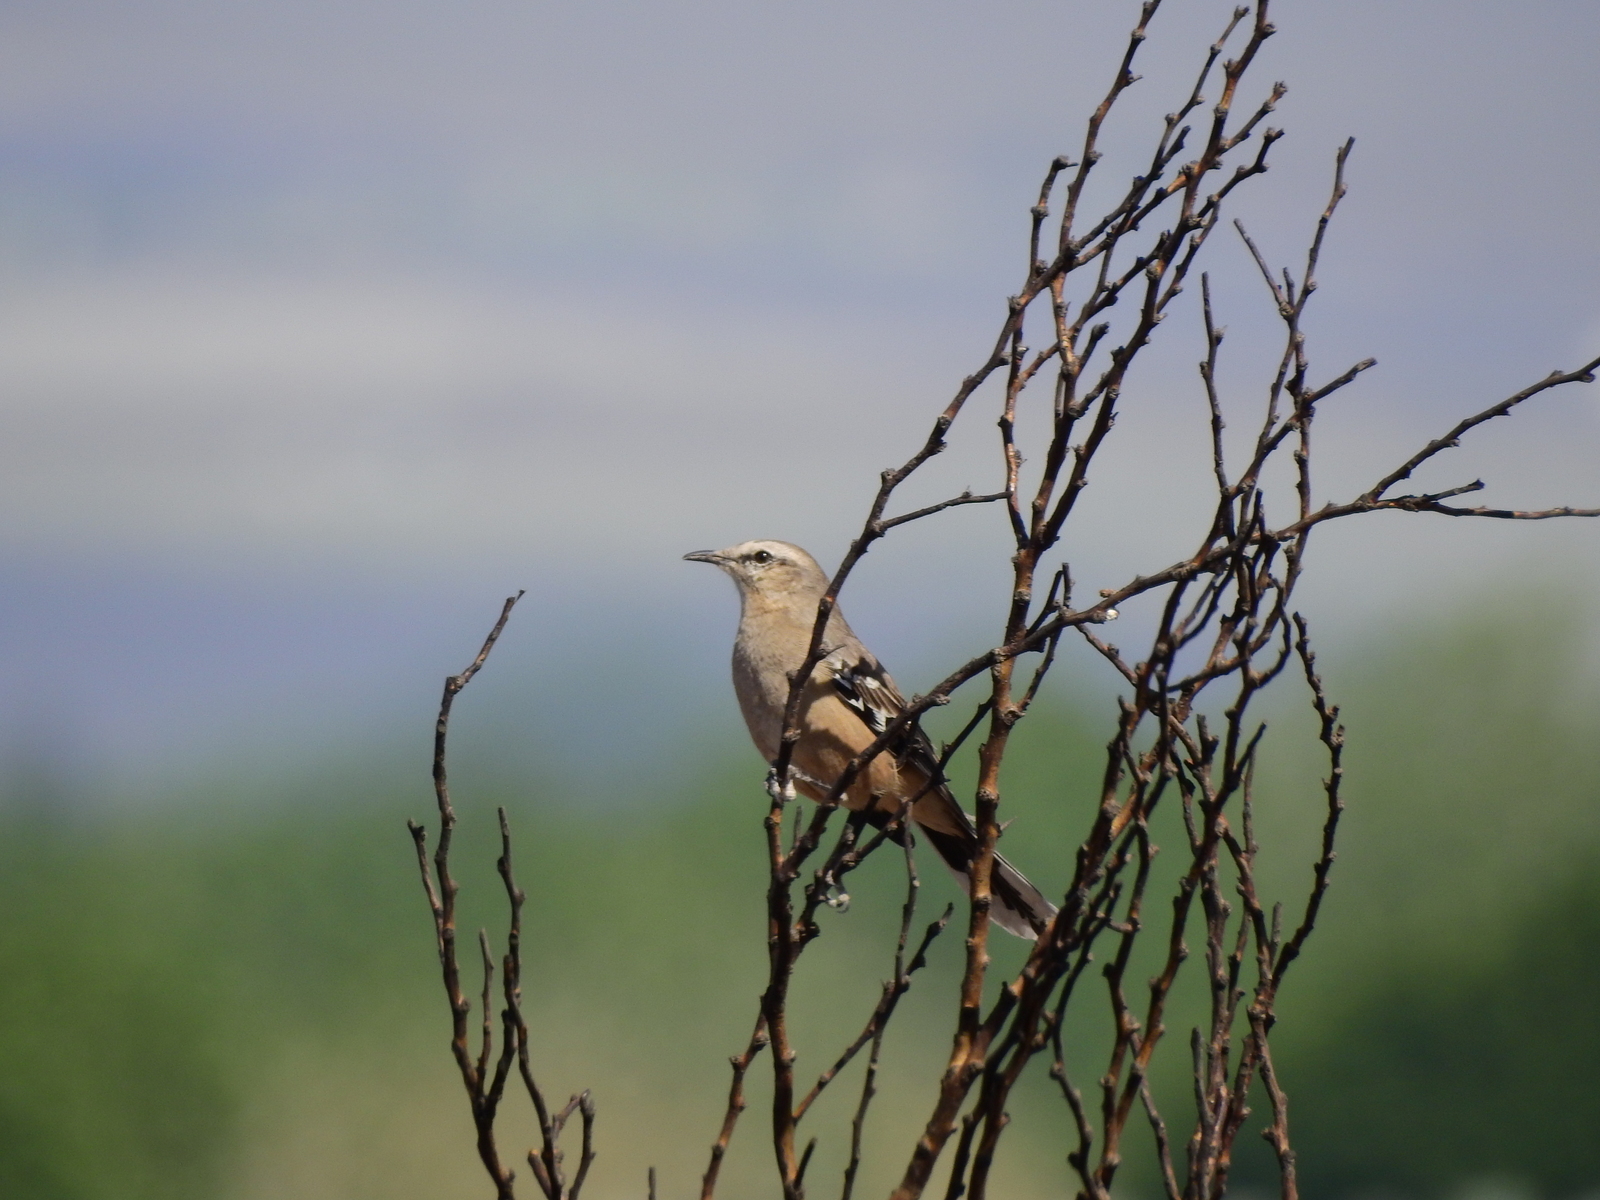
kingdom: Animalia
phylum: Chordata
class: Aves
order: Passeriformes
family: Mimidae
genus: Mimus
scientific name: Mimus patagonicus
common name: Patagonian mockingbird
